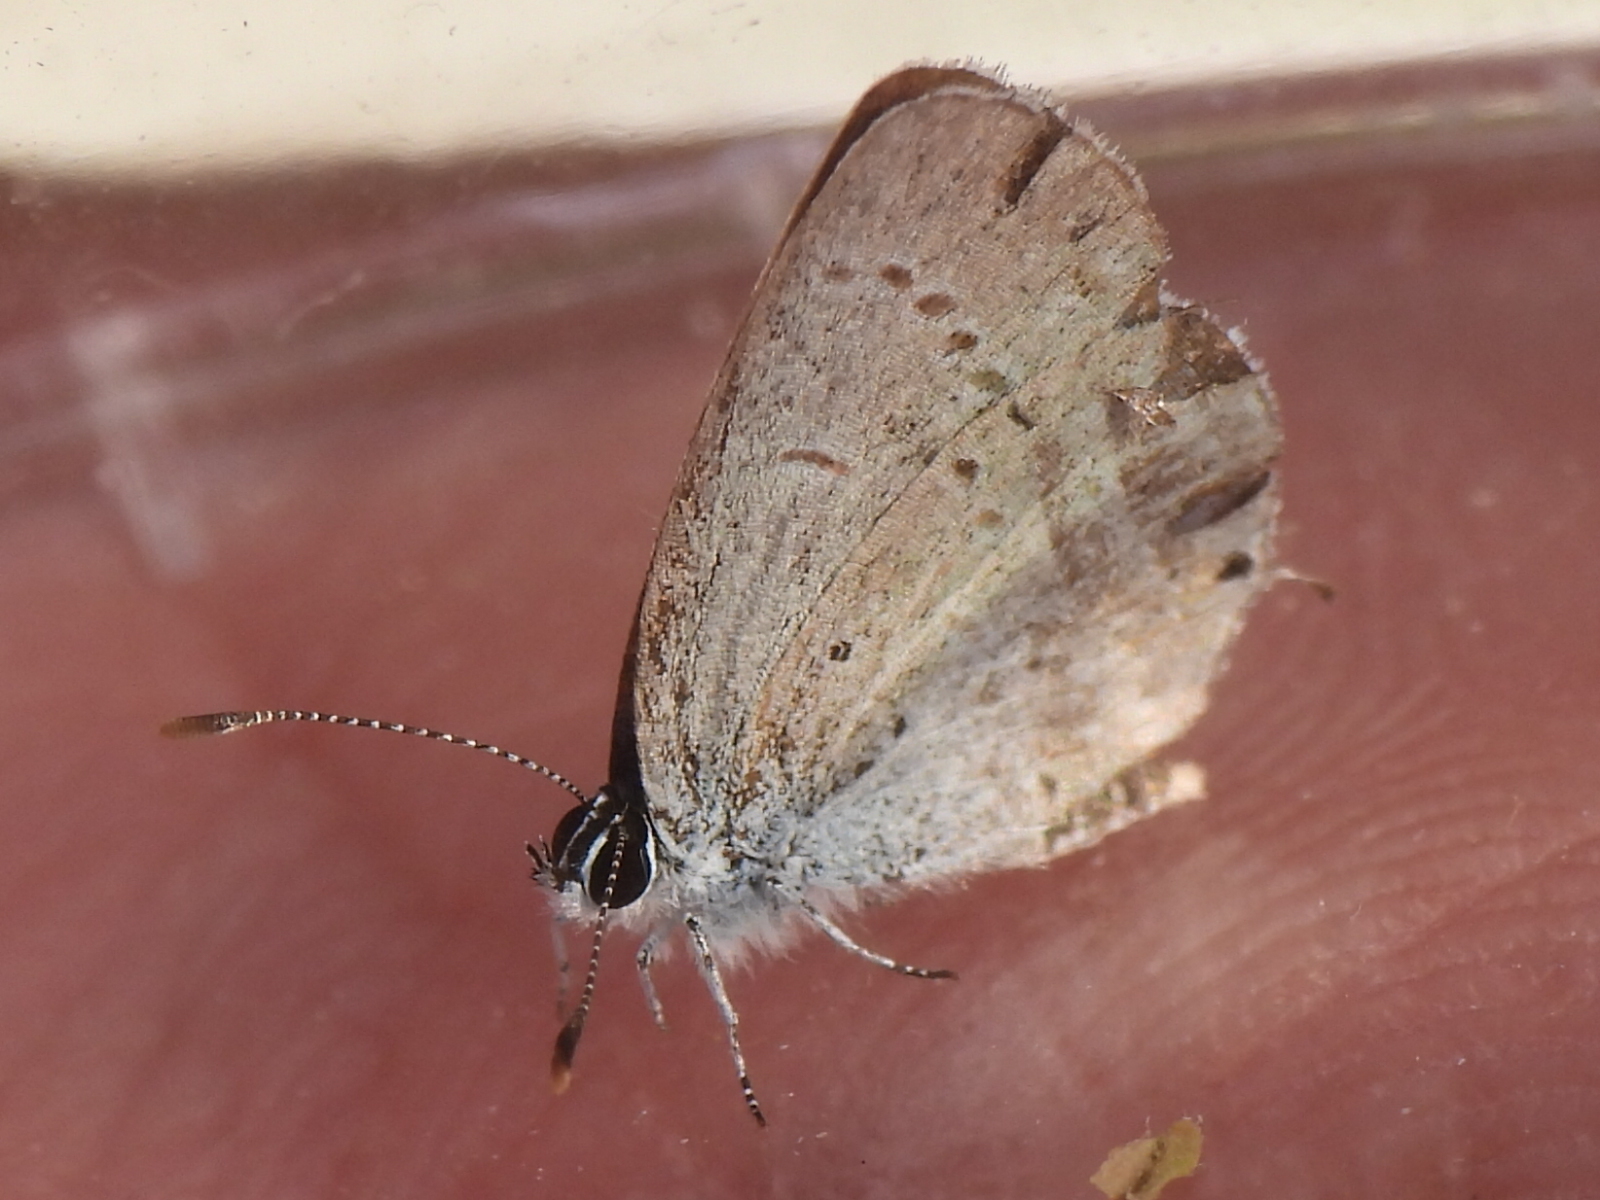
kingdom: Animalia
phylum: Arthropoda
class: Insecta
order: Lepidoptera
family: Lycaenidae
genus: Elkalyce
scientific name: Elkalyce comyntas
